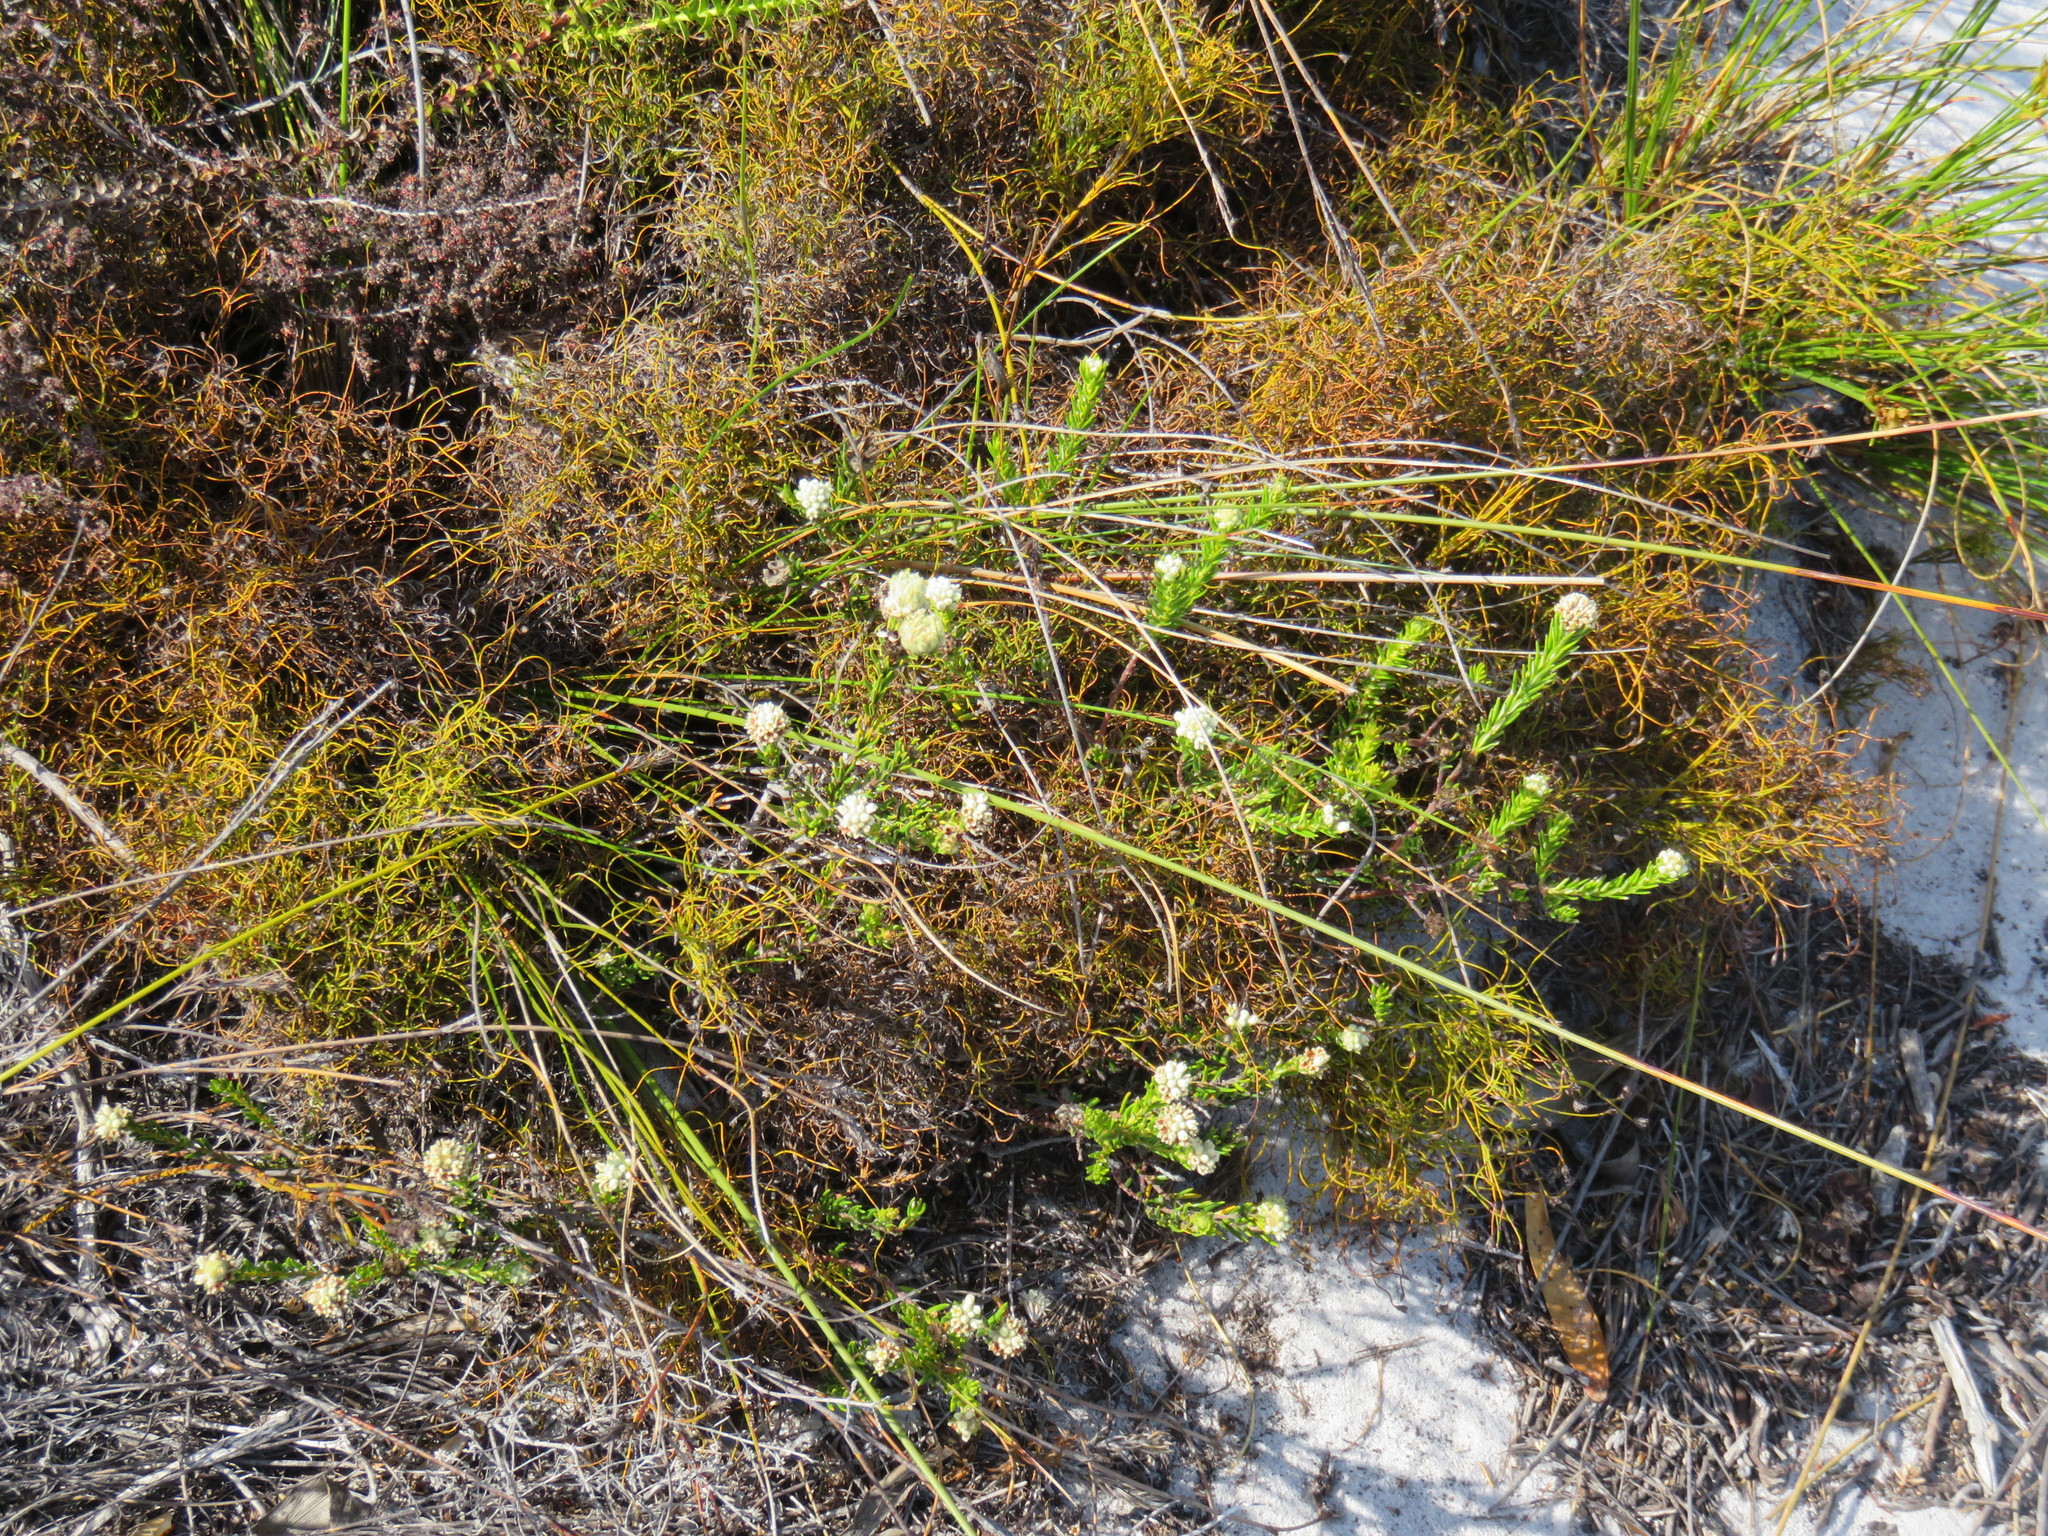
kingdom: Plantae
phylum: Tracheophyta
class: Magnoliopsida
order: Rosales
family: Rhamnaceae
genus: Phylica
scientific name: Phylica imberbis
